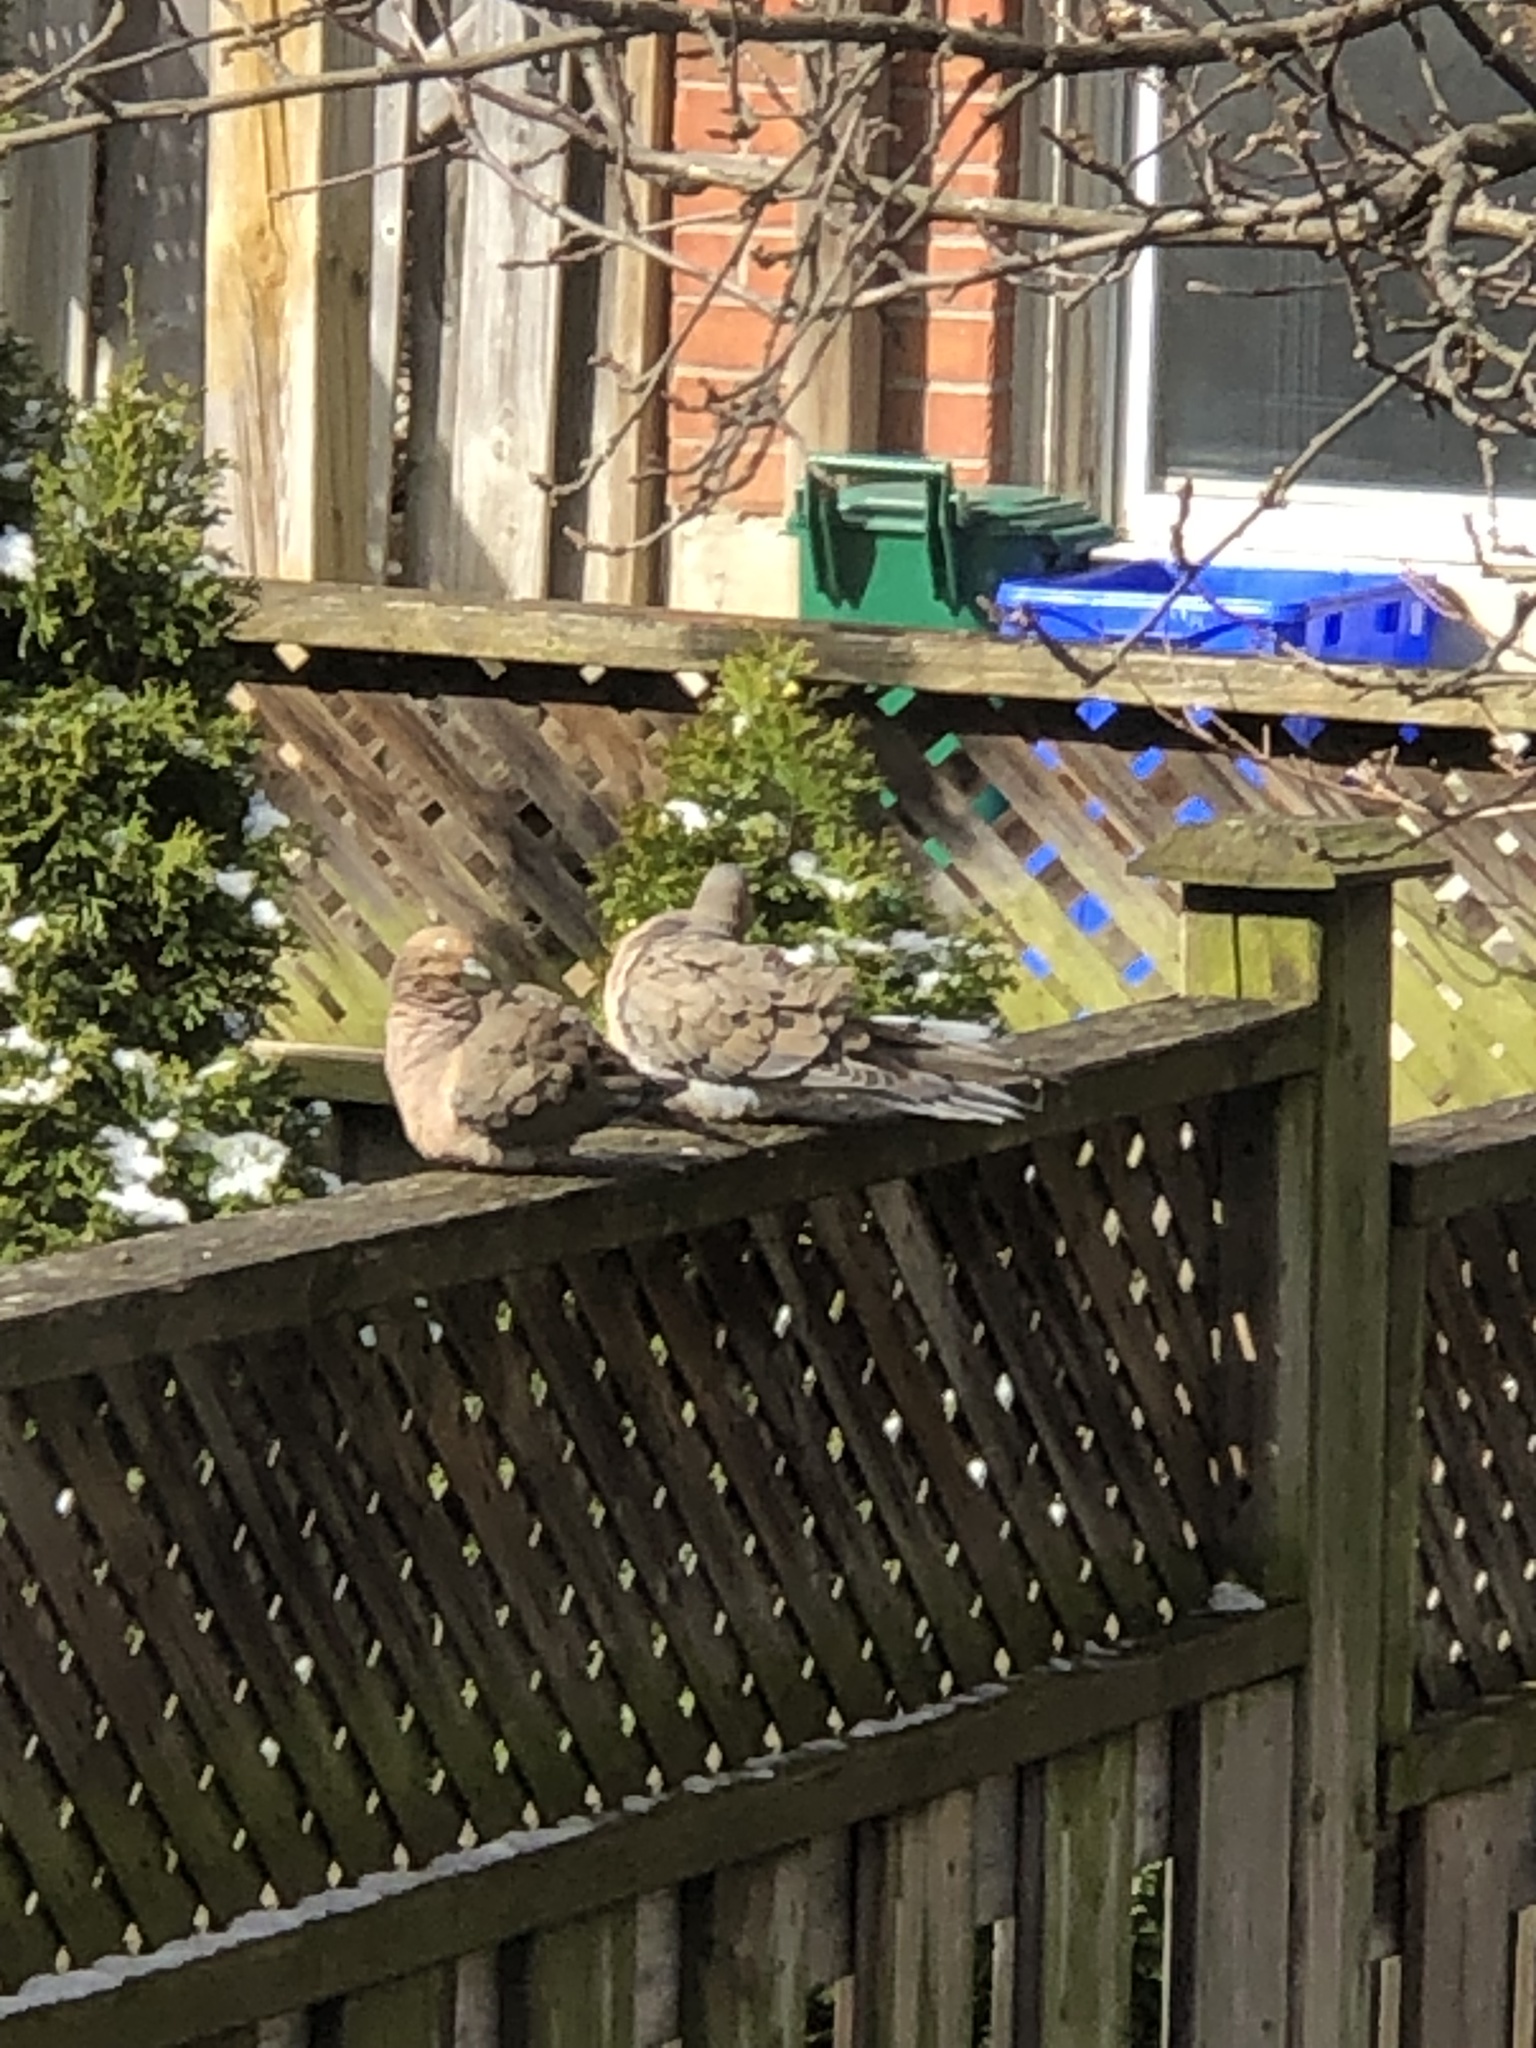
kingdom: Animalia
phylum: Chordata
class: Aves
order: Columbiformes
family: Columbidae
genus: Zenaida
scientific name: Zenaida macroura
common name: Mourning dove
